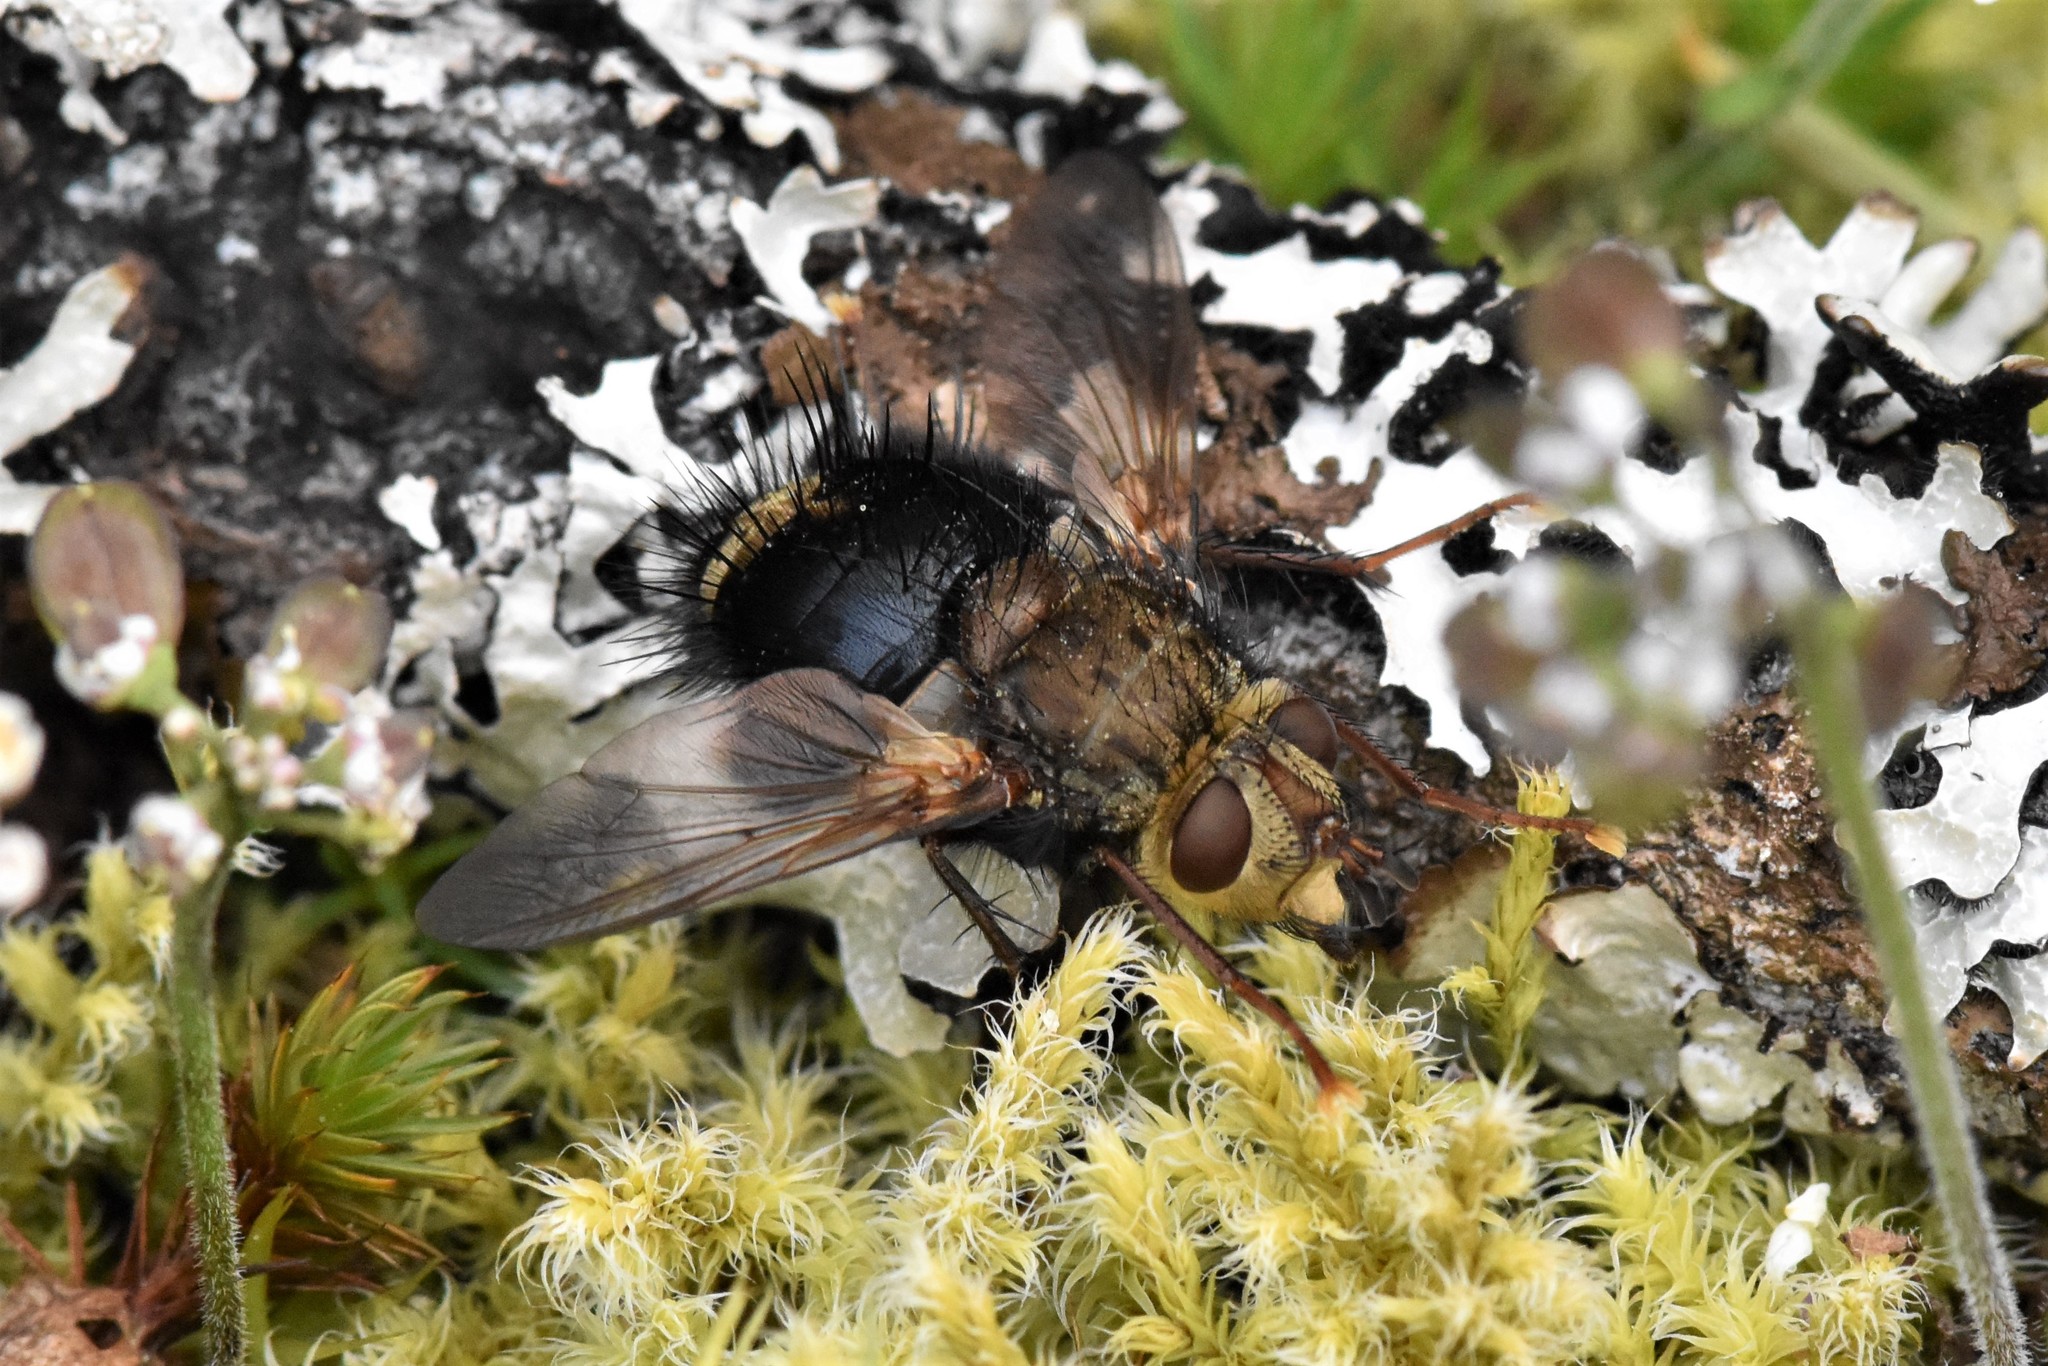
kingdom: Animalia
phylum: Arthropoda
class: Insecta
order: Diptera
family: Tachinidae
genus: Epalpus
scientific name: Epalpus signifer
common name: Early tachinid fly
